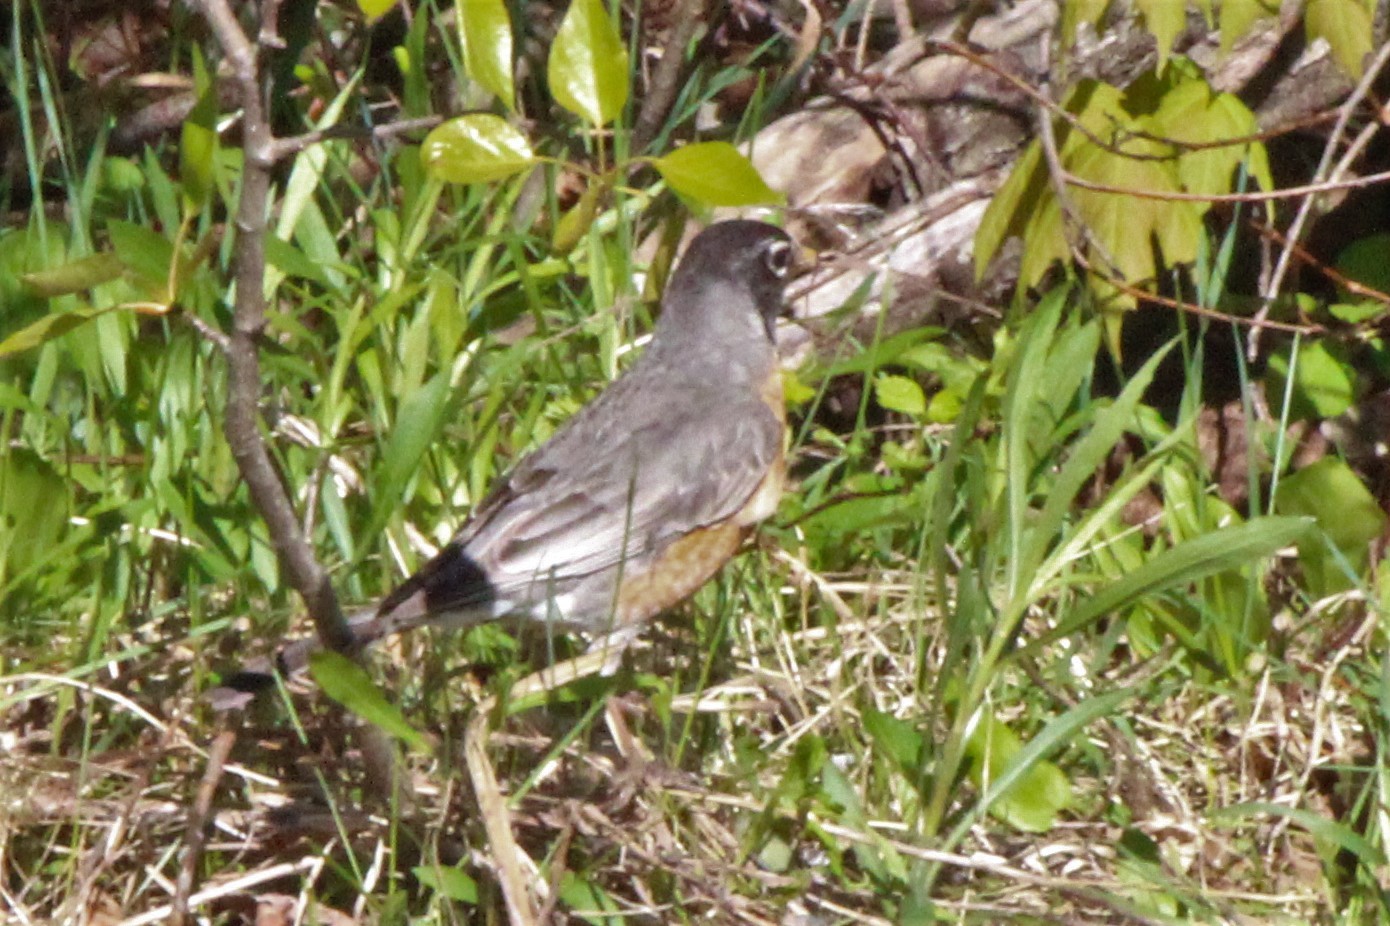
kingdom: Animalia
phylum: Chordata
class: Aves
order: Passeriformes
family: Turdidae
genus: Turdus
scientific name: Turdus migratorius
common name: American robin
